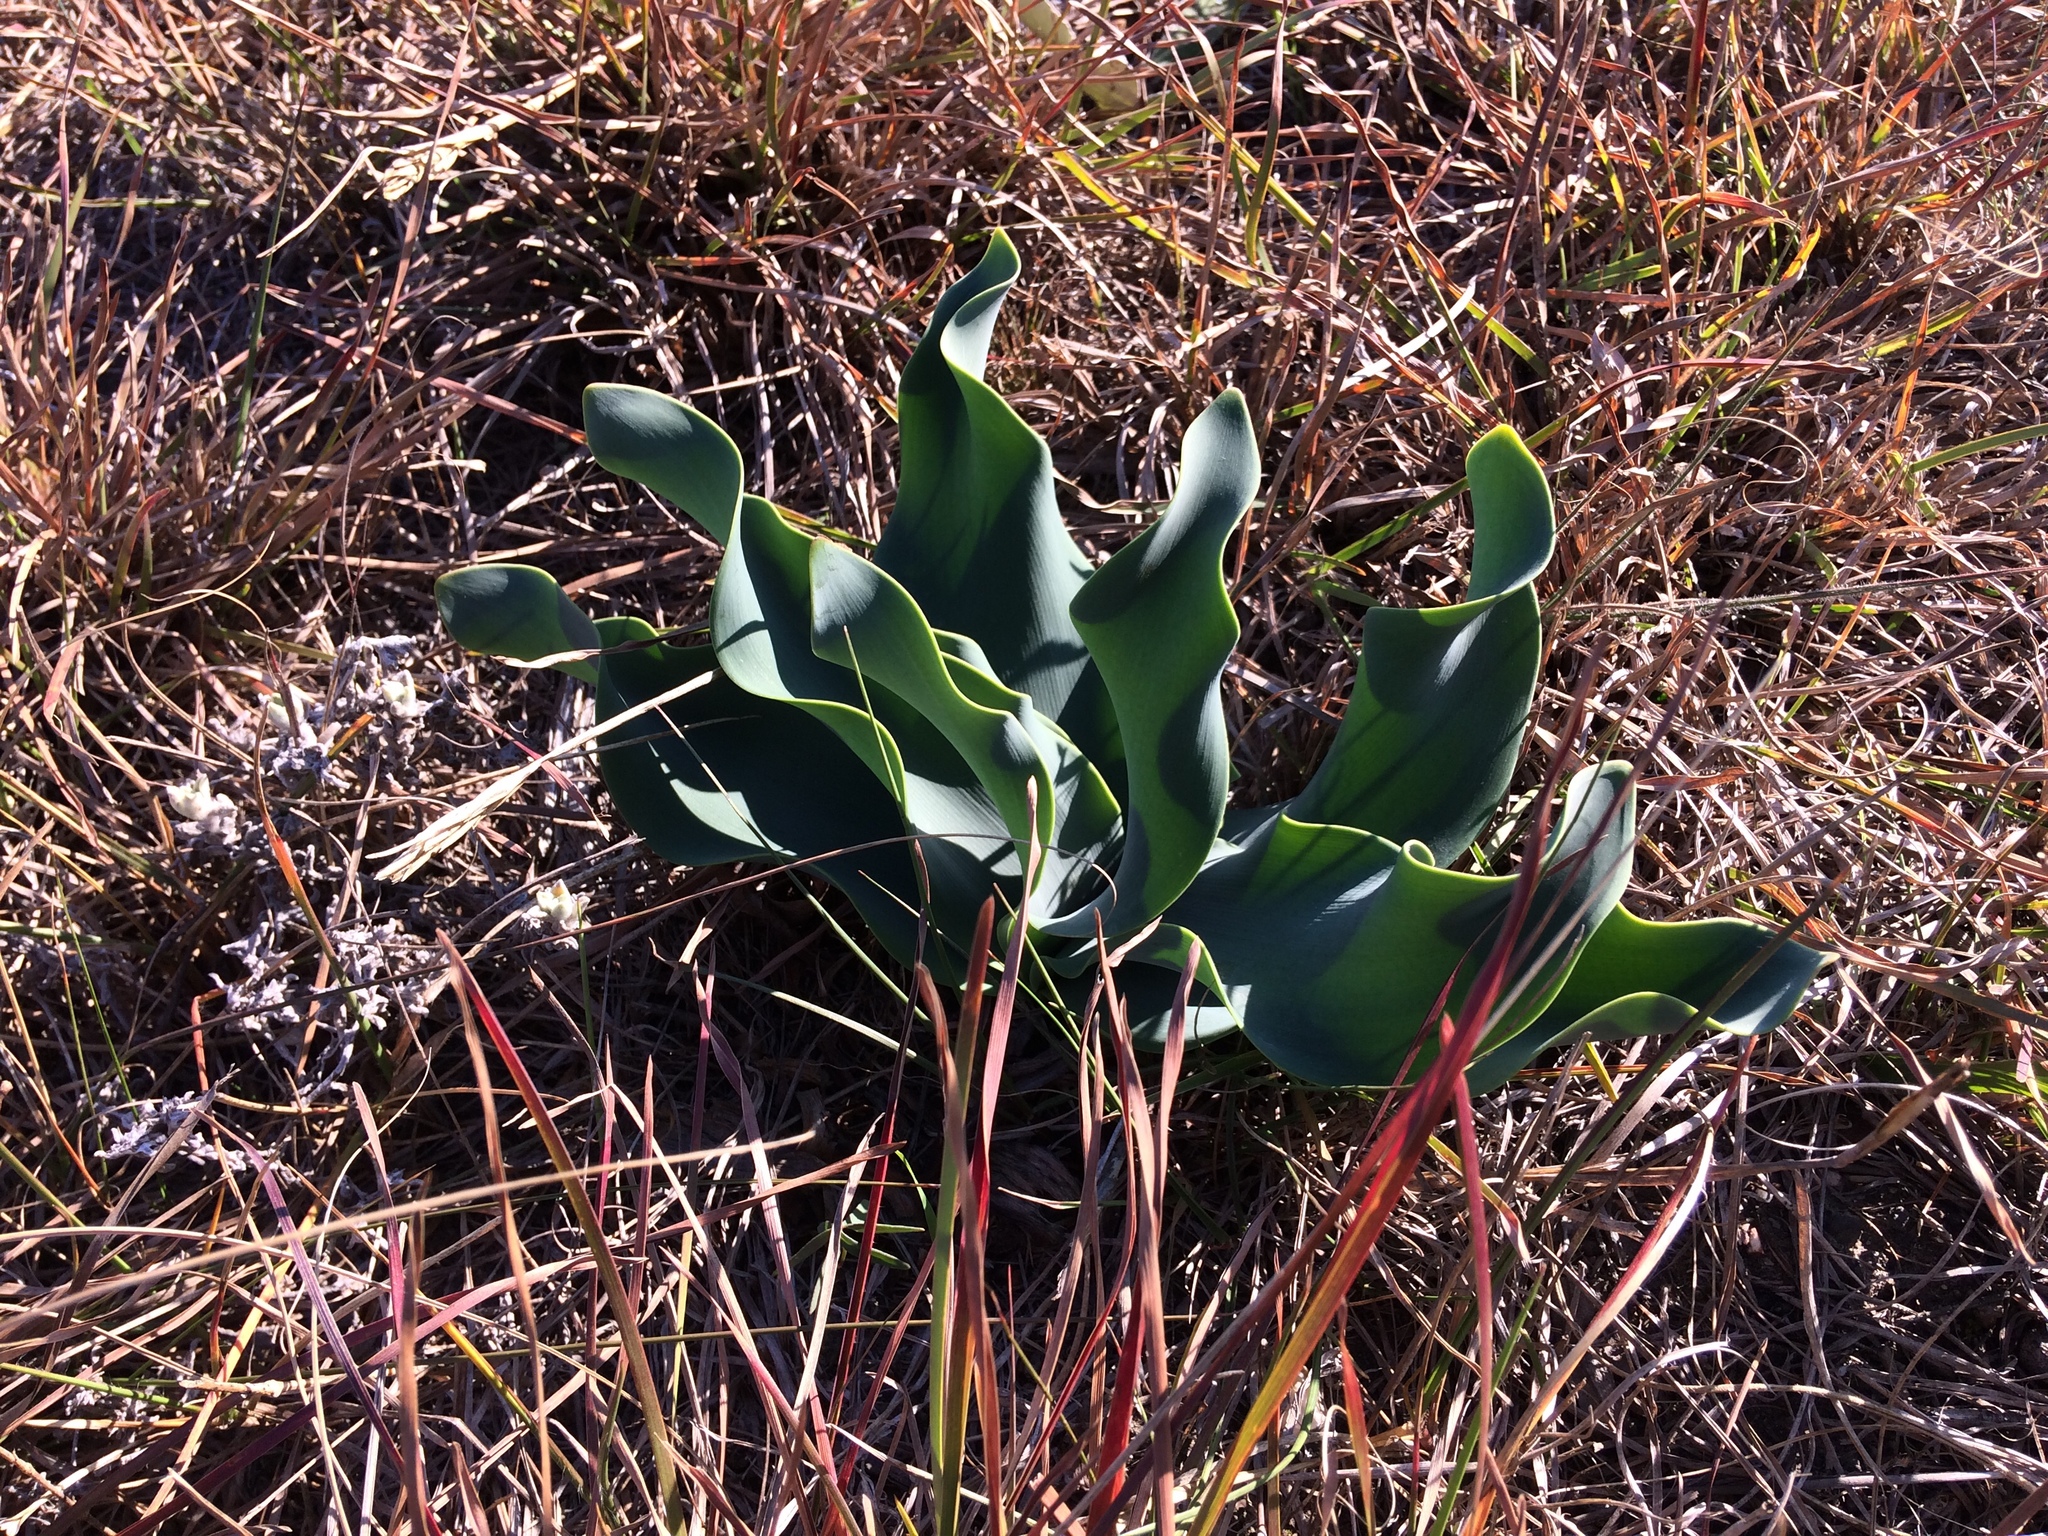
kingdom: Plantae
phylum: Tracheophyta
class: Liliopsida
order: Asparagales
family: Amaryllidaceae
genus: Brunsvigia
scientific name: Brunsvigia litoralis
